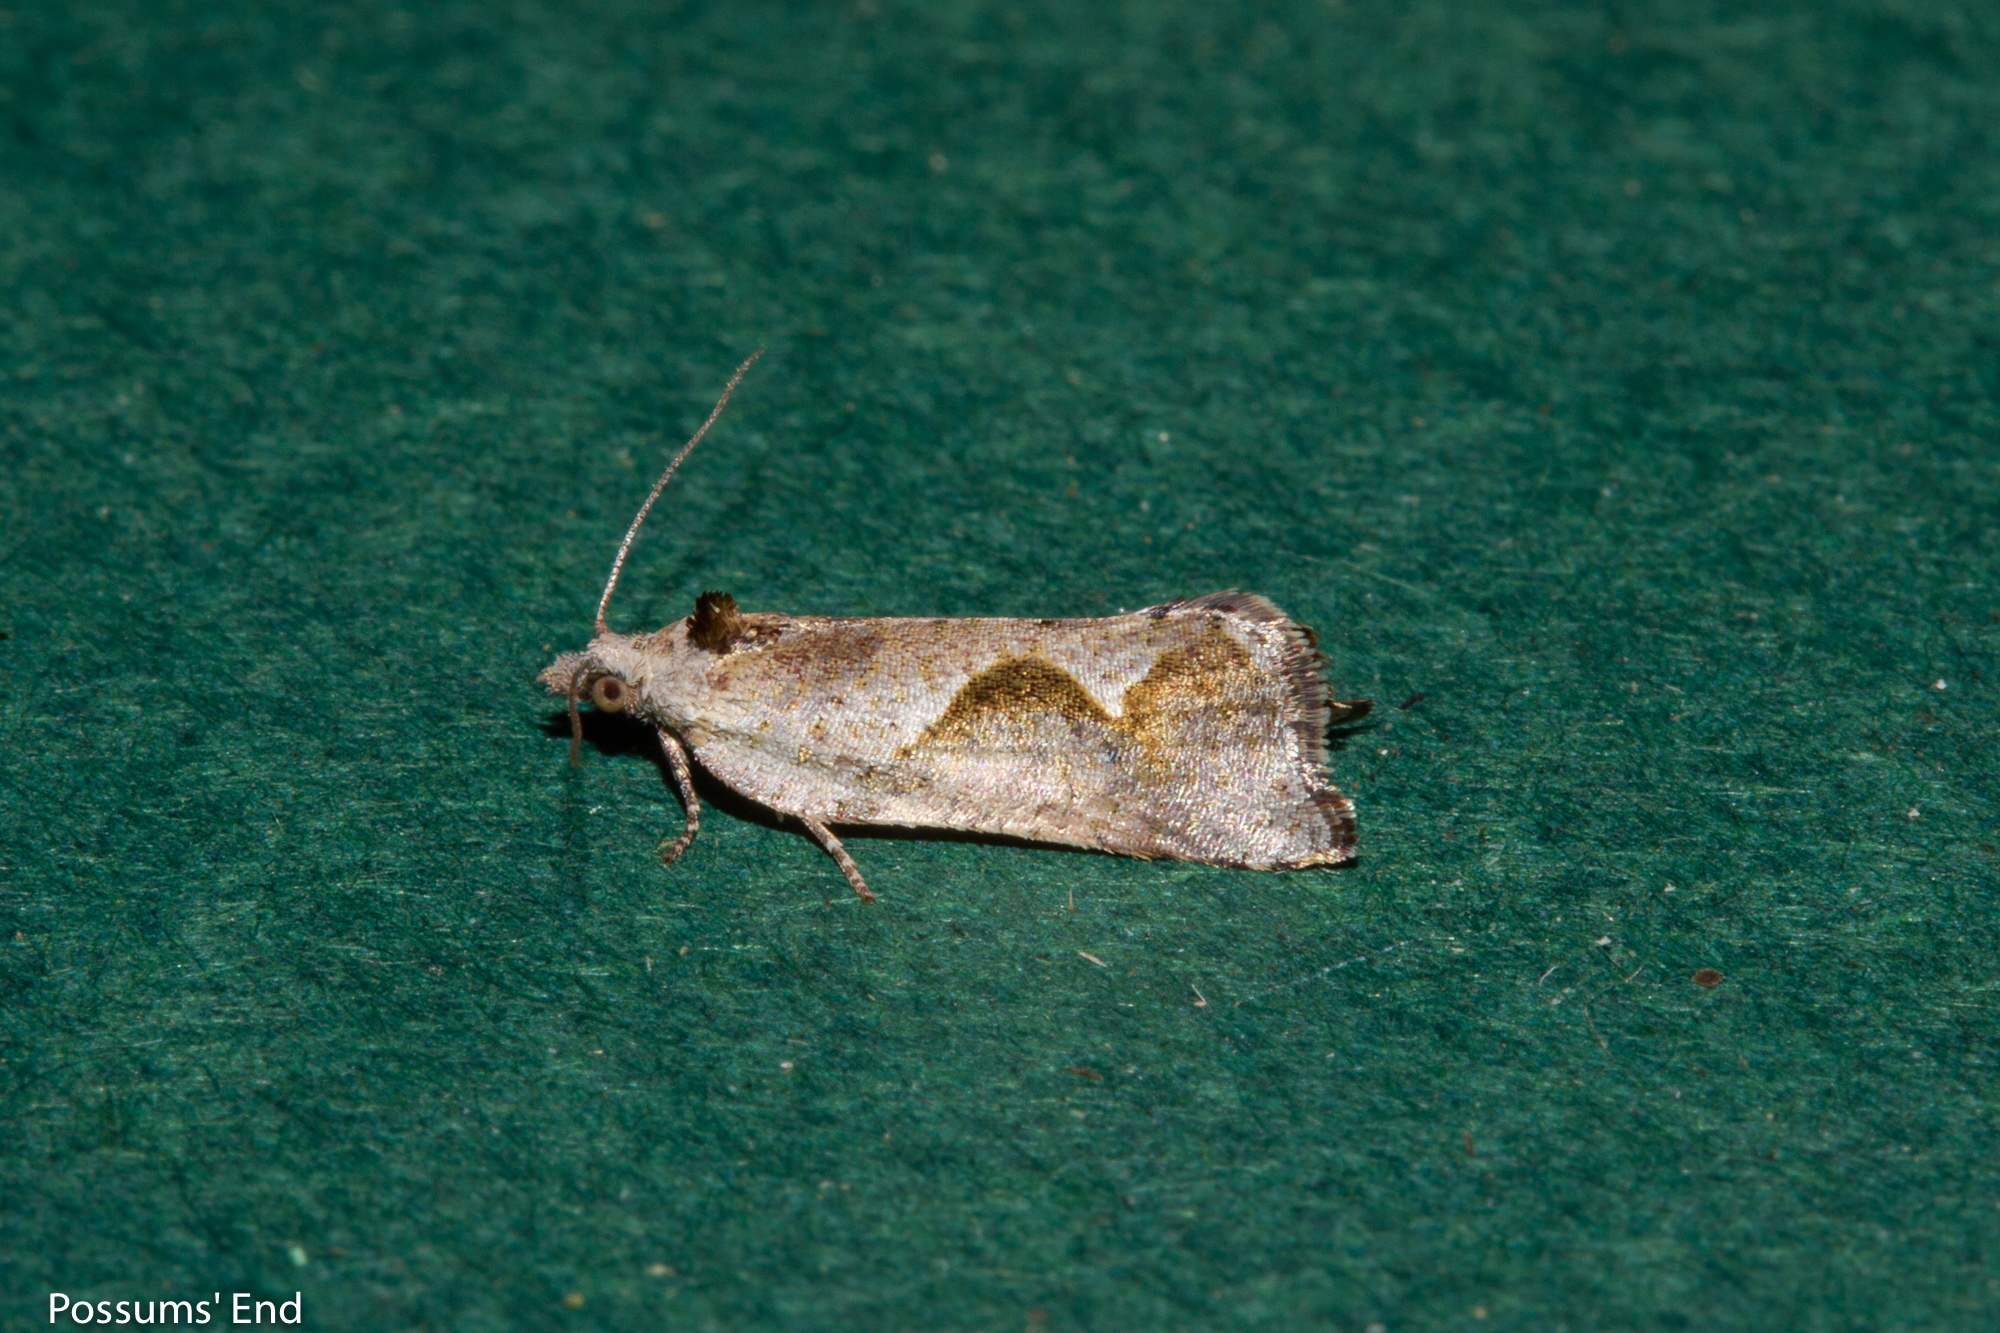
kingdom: Animalia
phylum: Arthropoda
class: Insecta
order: Lepidoptera
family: Tortricidae
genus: Pyrgotis
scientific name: Pyrgotis plagiatana
